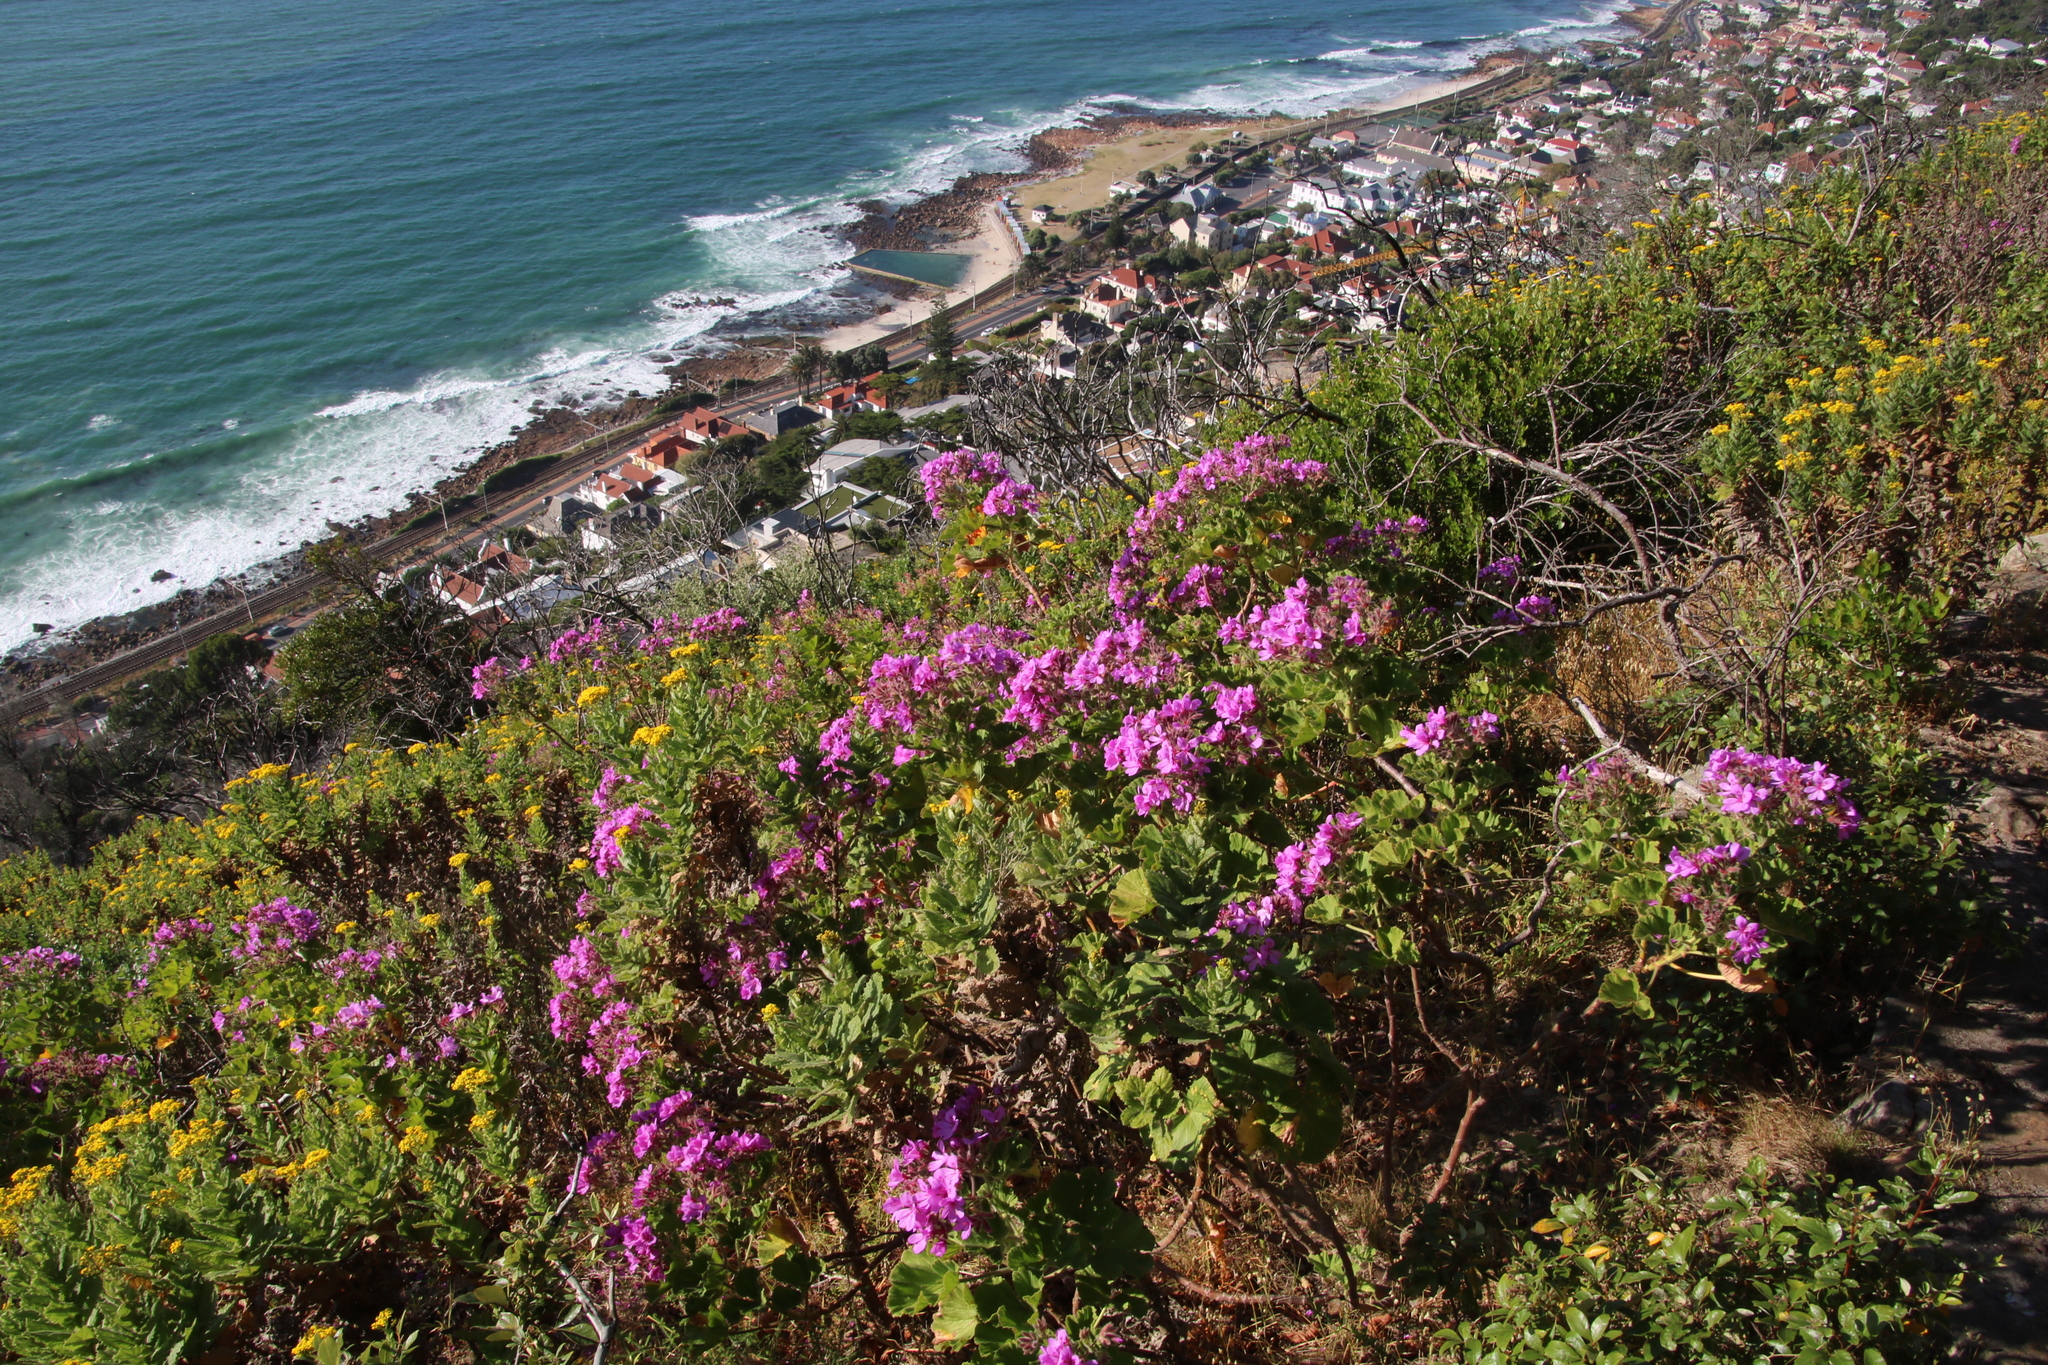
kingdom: Plantae
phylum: Tracheophyta
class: Magnoliopsida
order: Geraniales
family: Geraniaceae
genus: Pelargonium
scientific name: Pelargonium cucullatum
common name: Tree pelargonium
